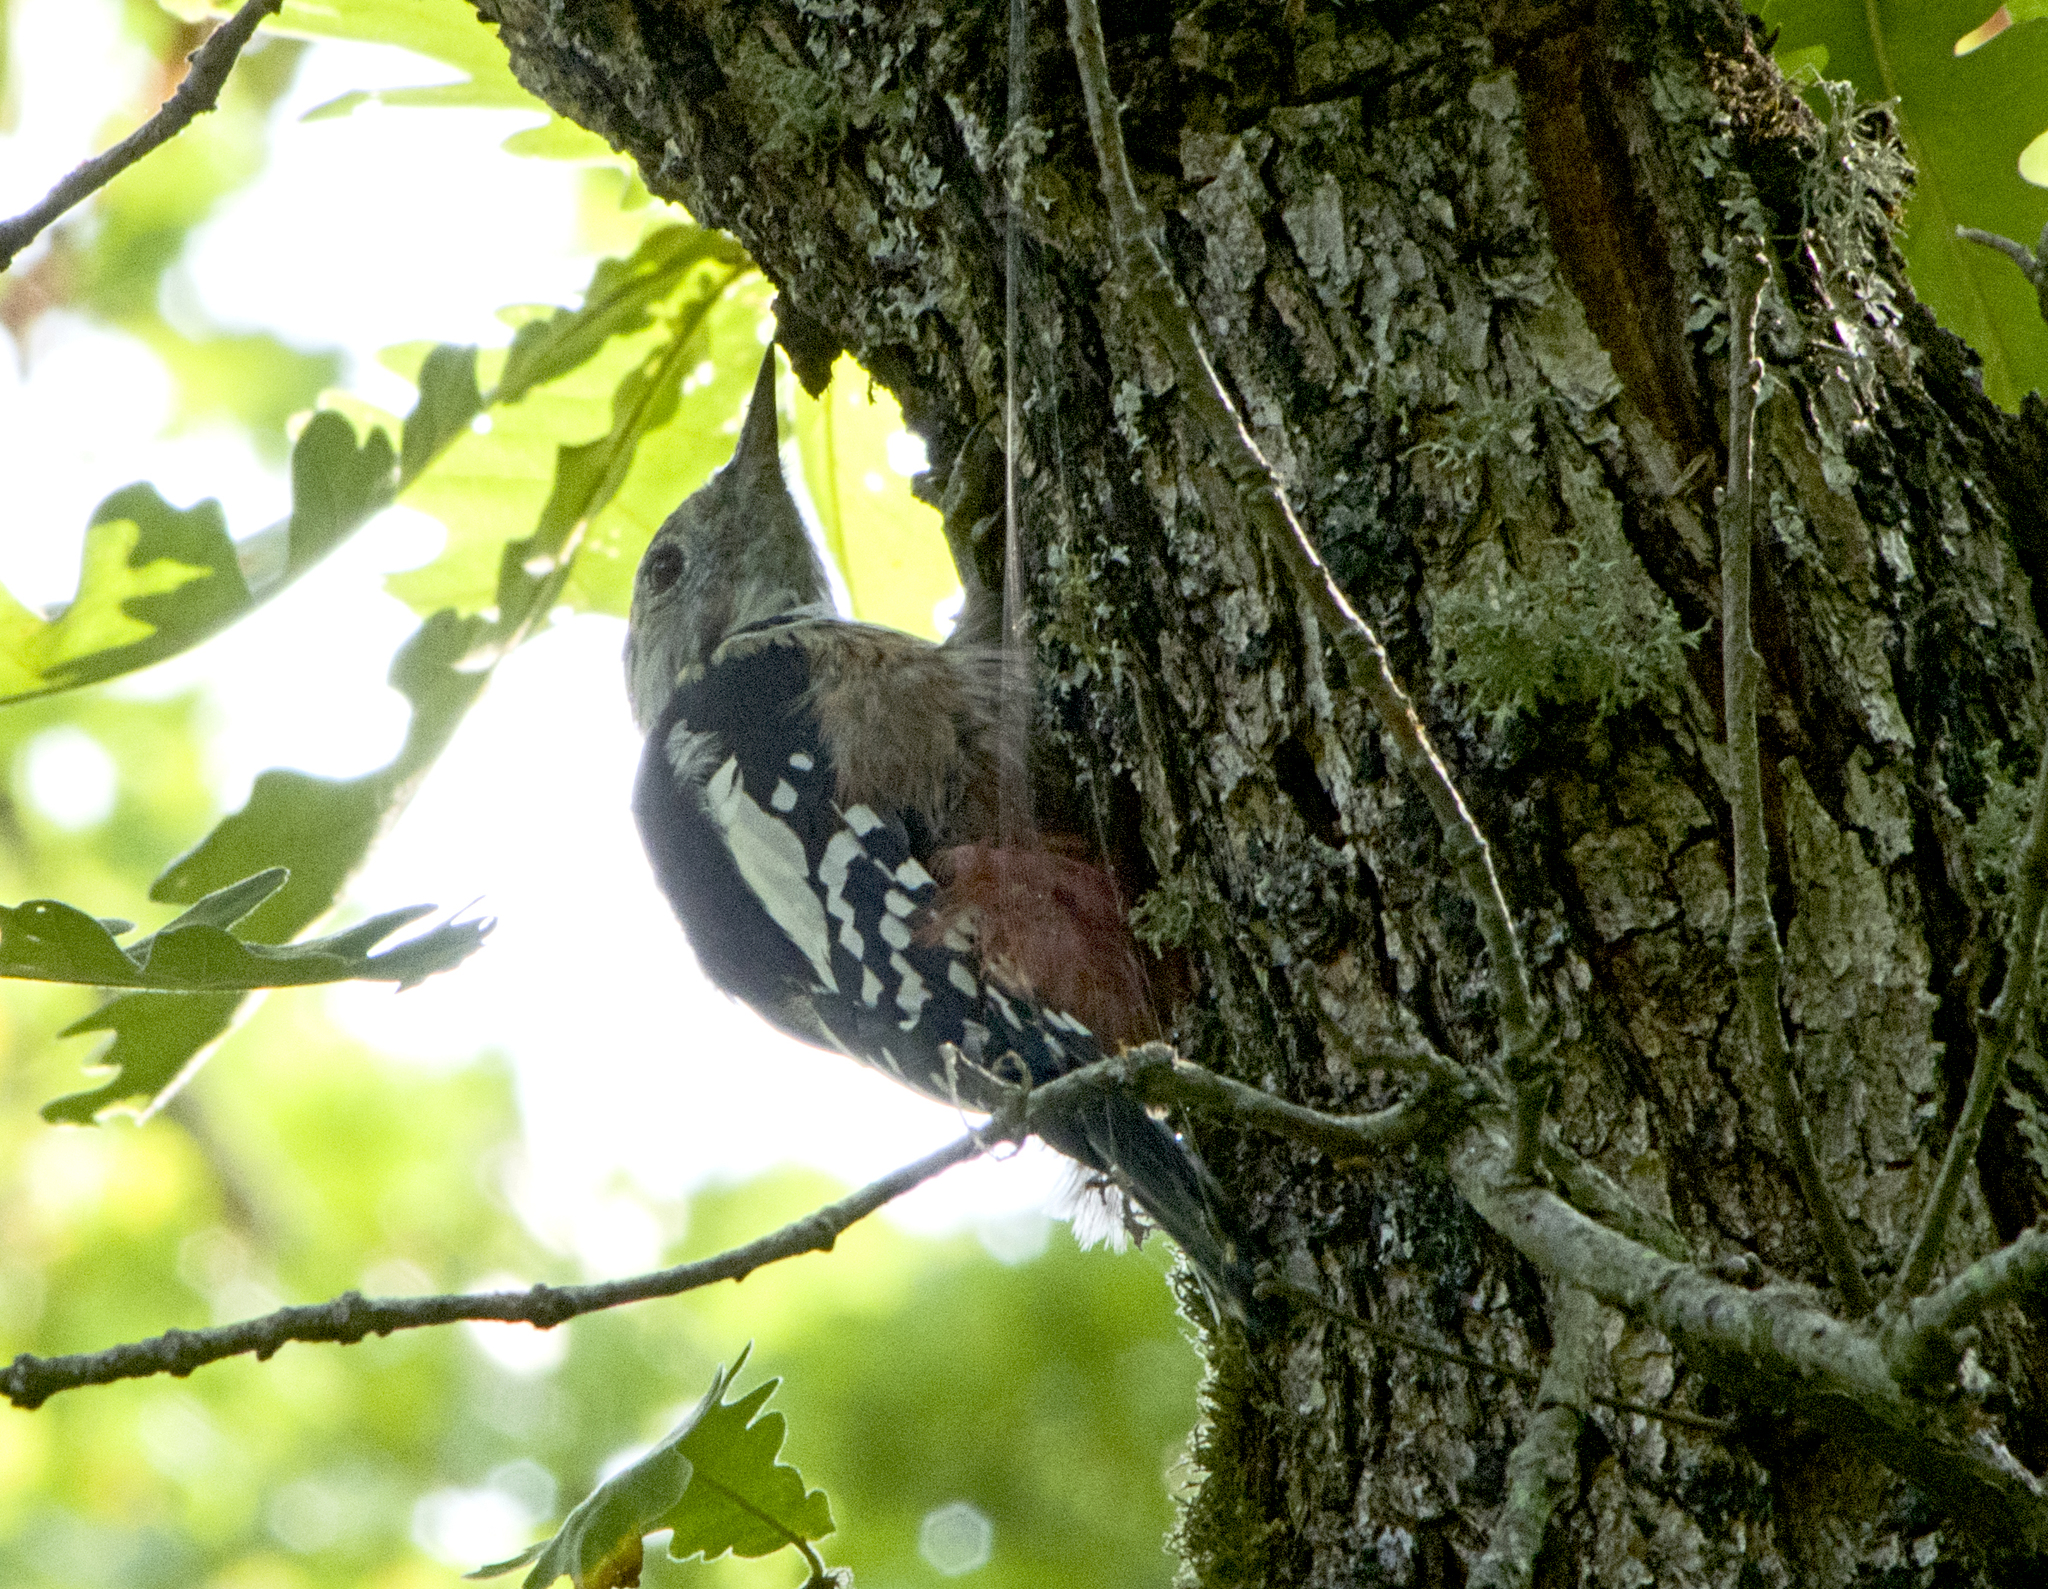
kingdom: Animalia
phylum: Chordata
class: Aves
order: Piciformes
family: Picidae
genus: Dendrocoptes
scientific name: Dendrocoptes medius
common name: Middle spotted woodpecker
